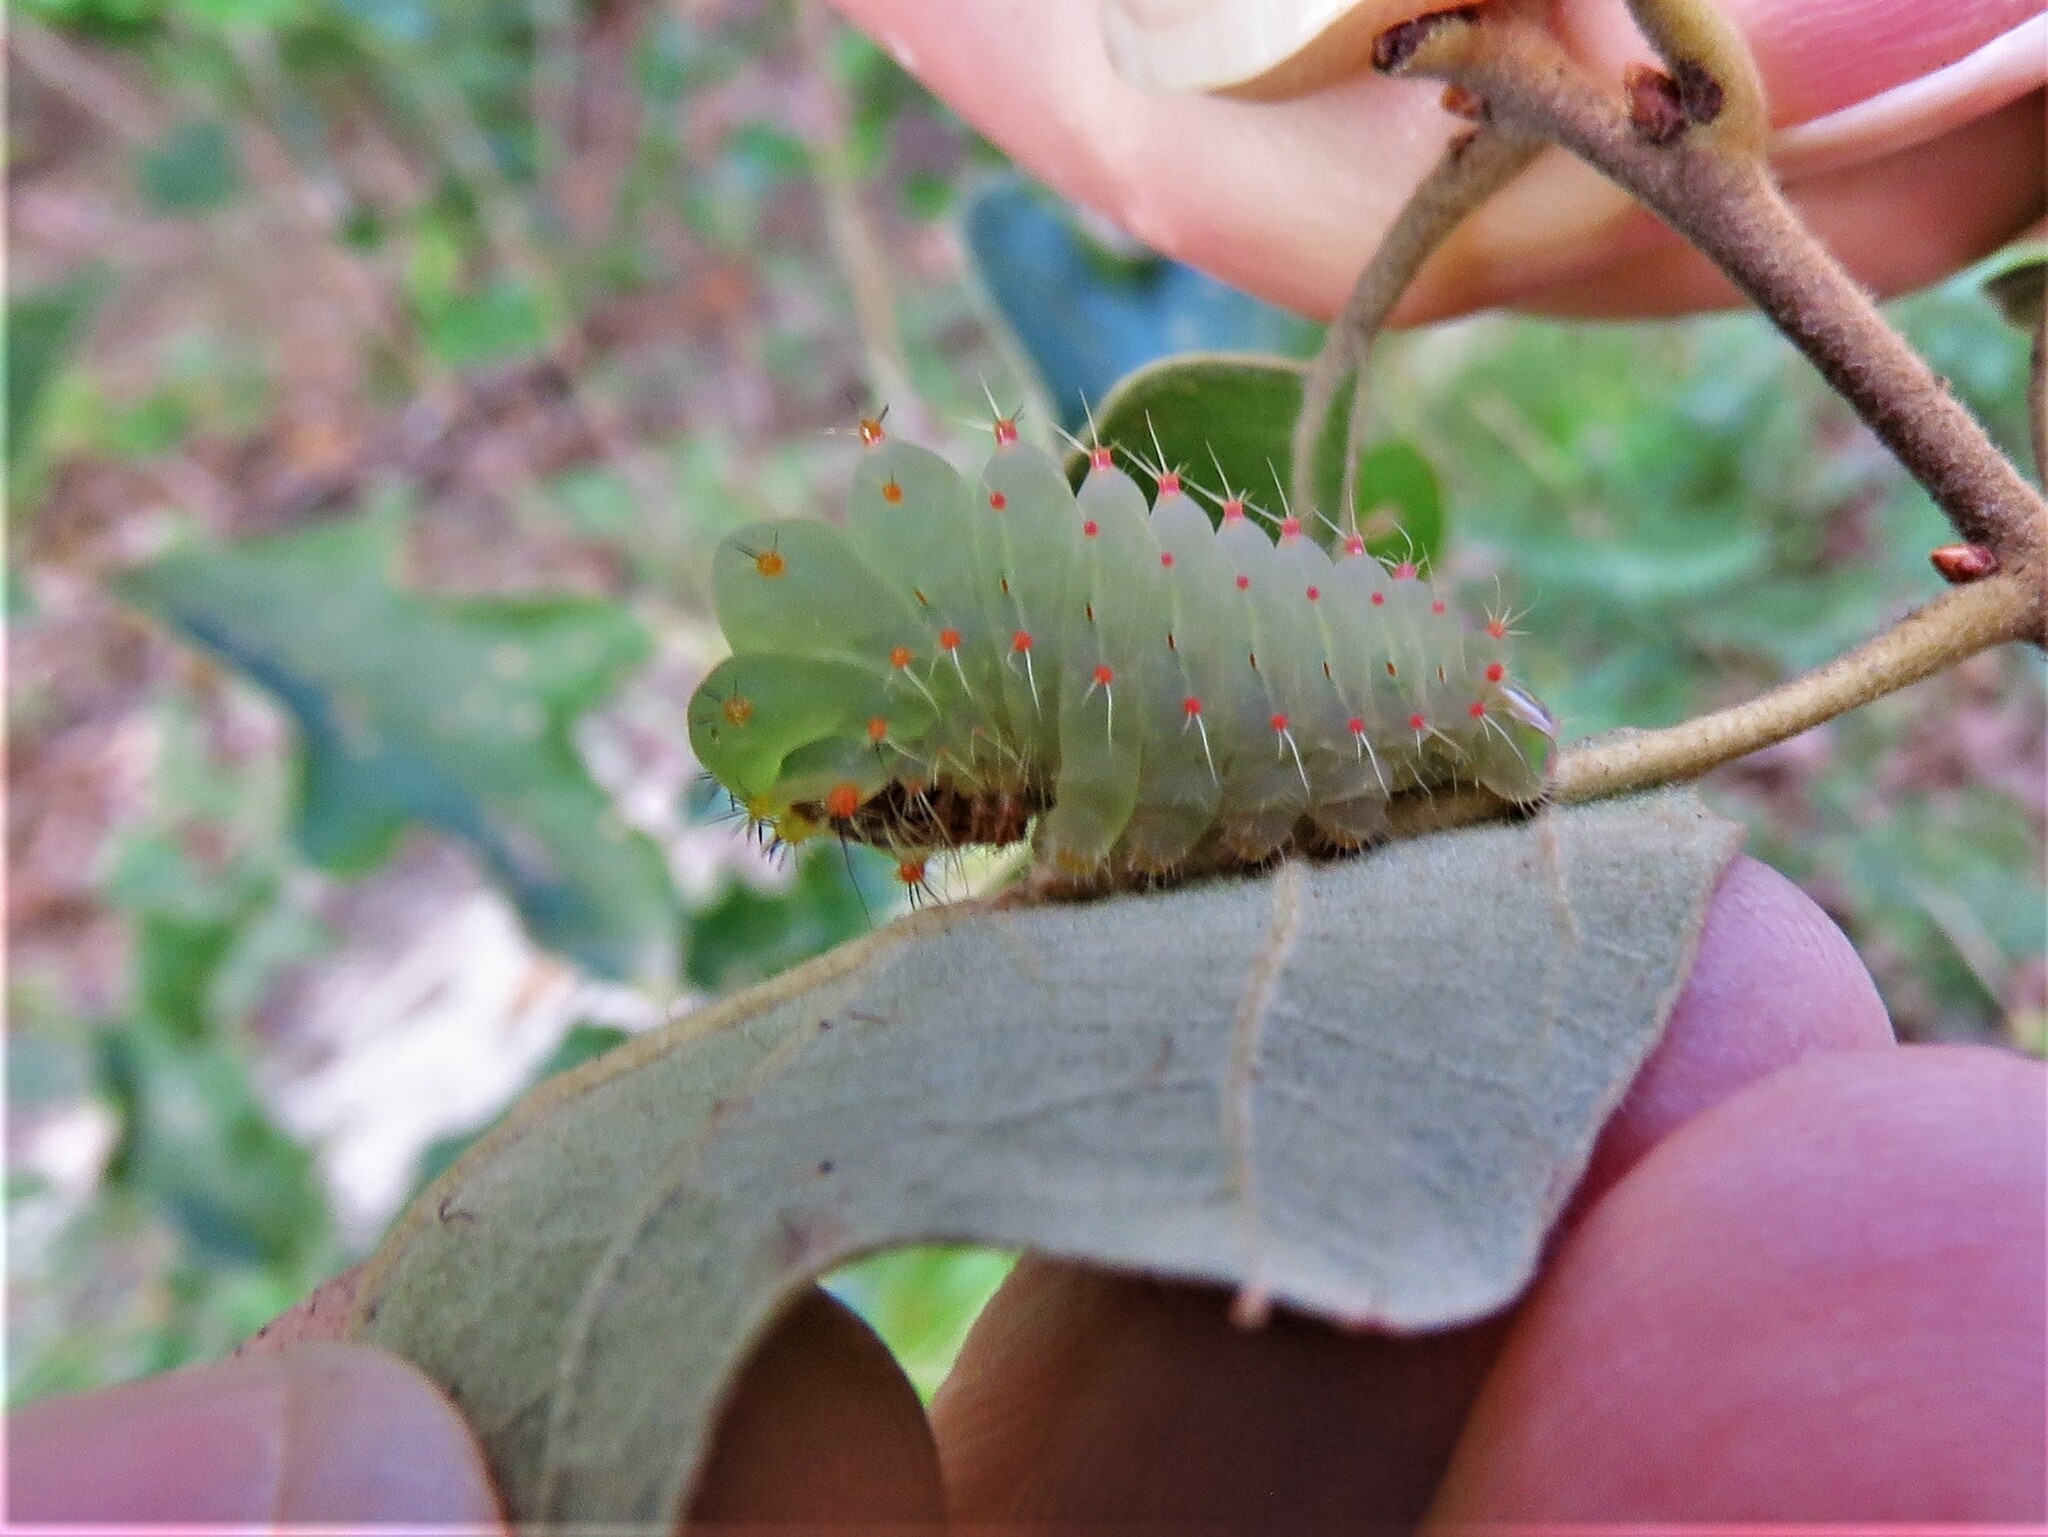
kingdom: Animalia
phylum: Arthropoda
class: Insecta
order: Lepidoptera
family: Saturniidae
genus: Antheraea
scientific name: Antheraea polyphemus
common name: Polyphemus moth
